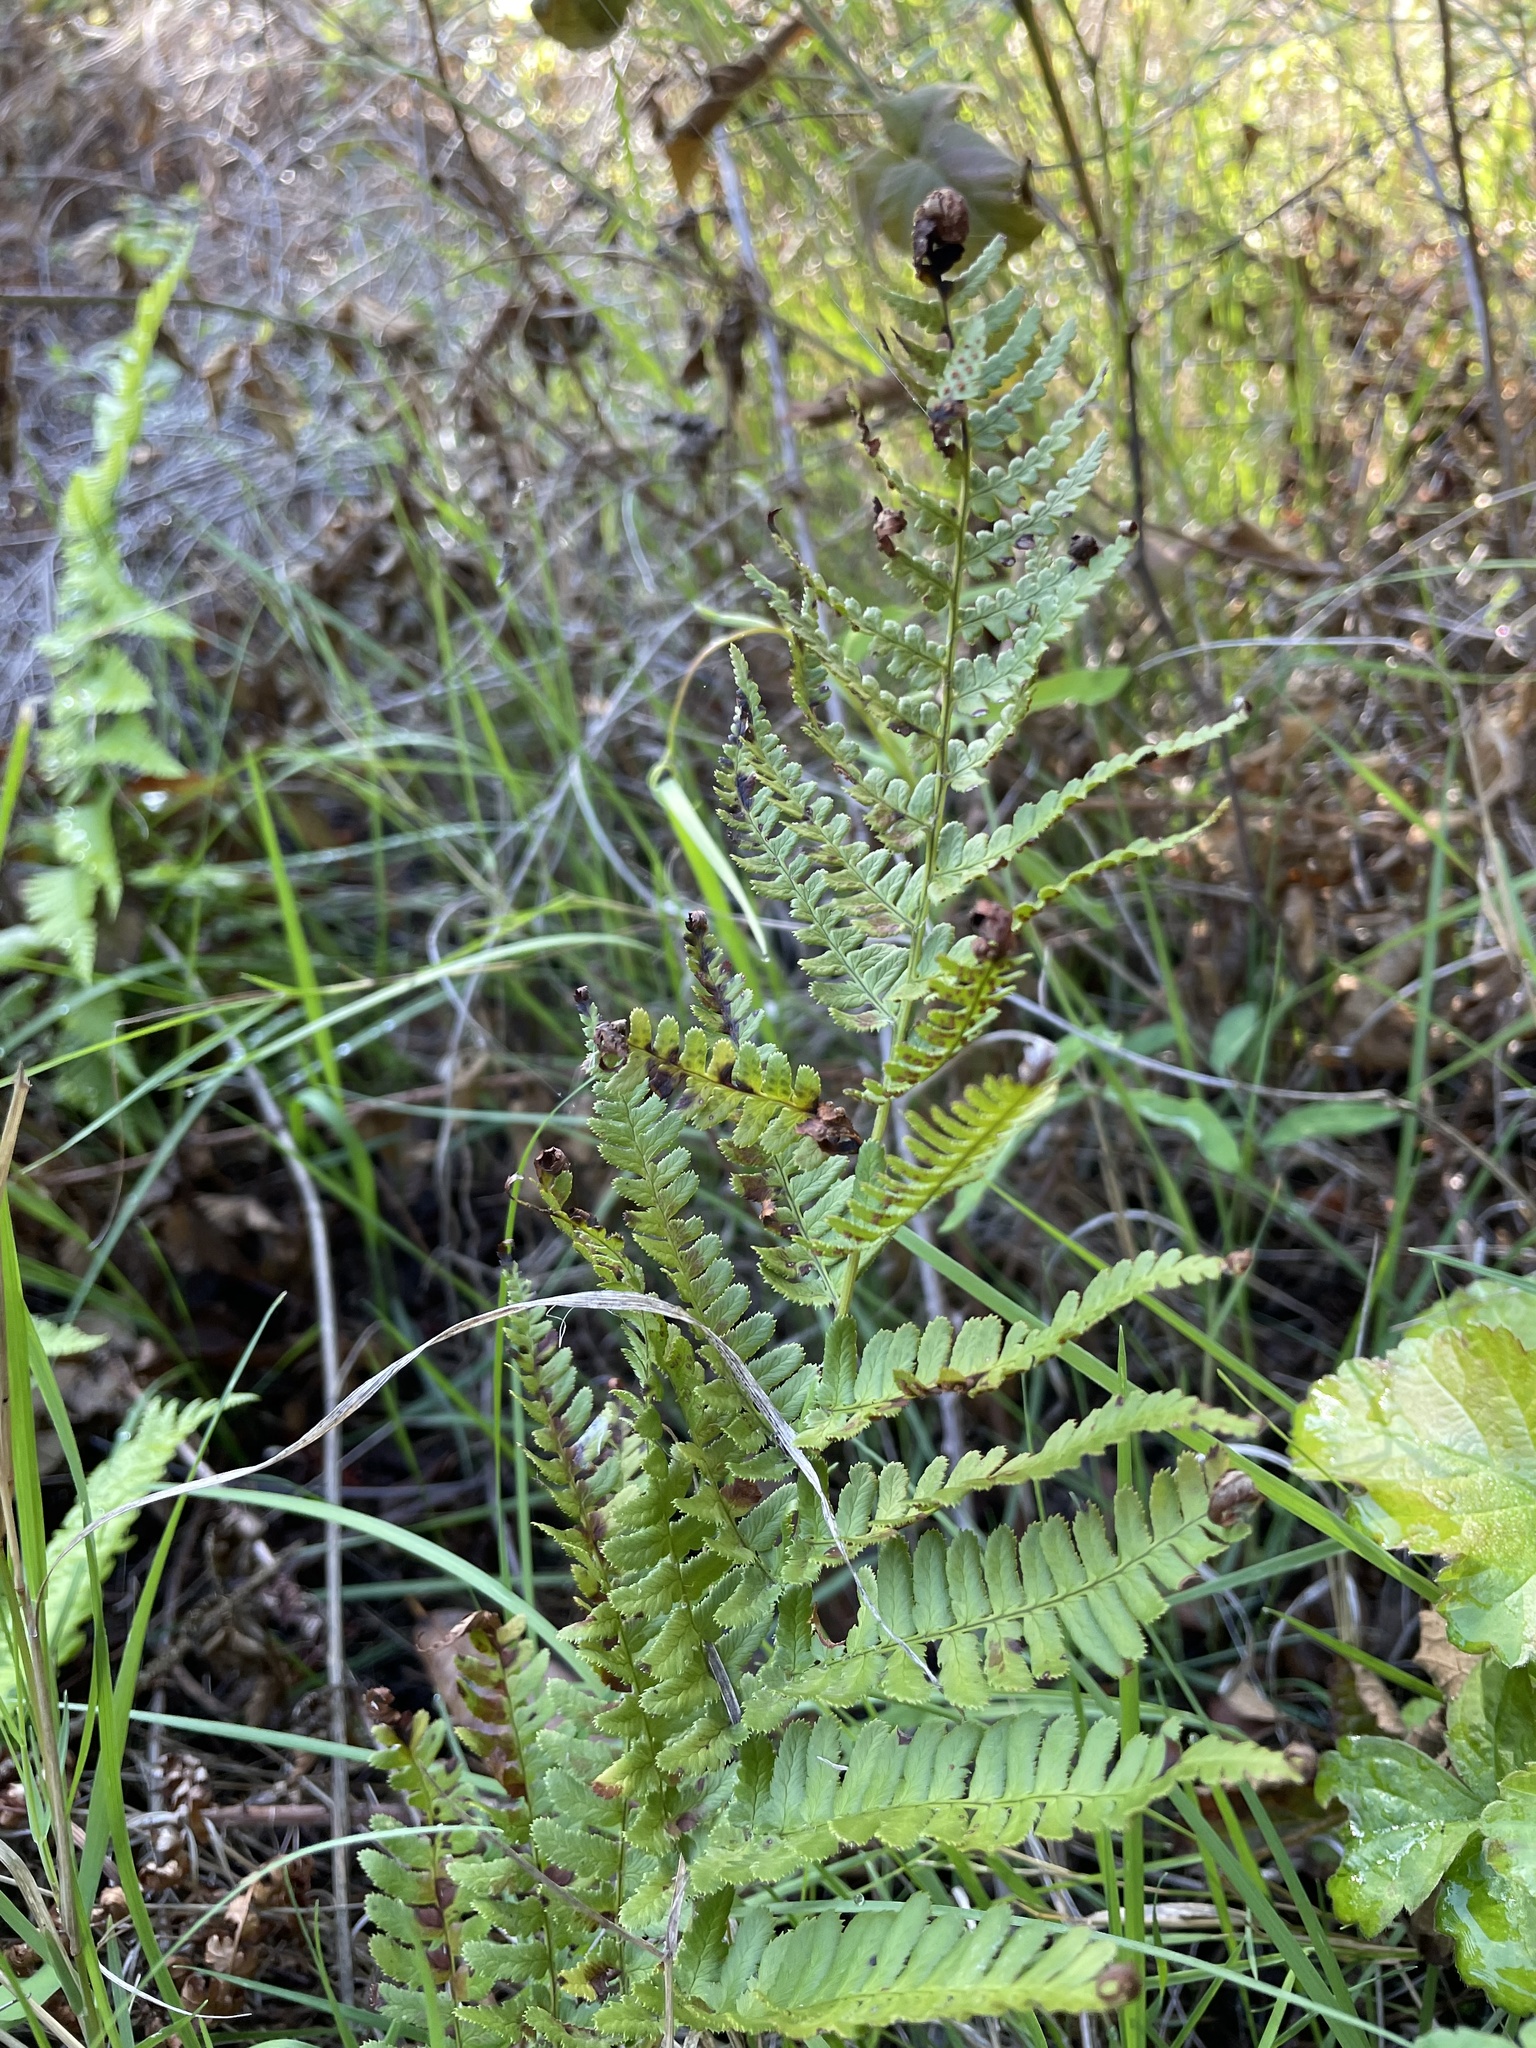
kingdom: Plantae
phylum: Tracheophyta
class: Polypodiopsida
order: Polypodiales
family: Dryopteridaceae
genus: Dryopteris
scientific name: Dryopteris arguta
